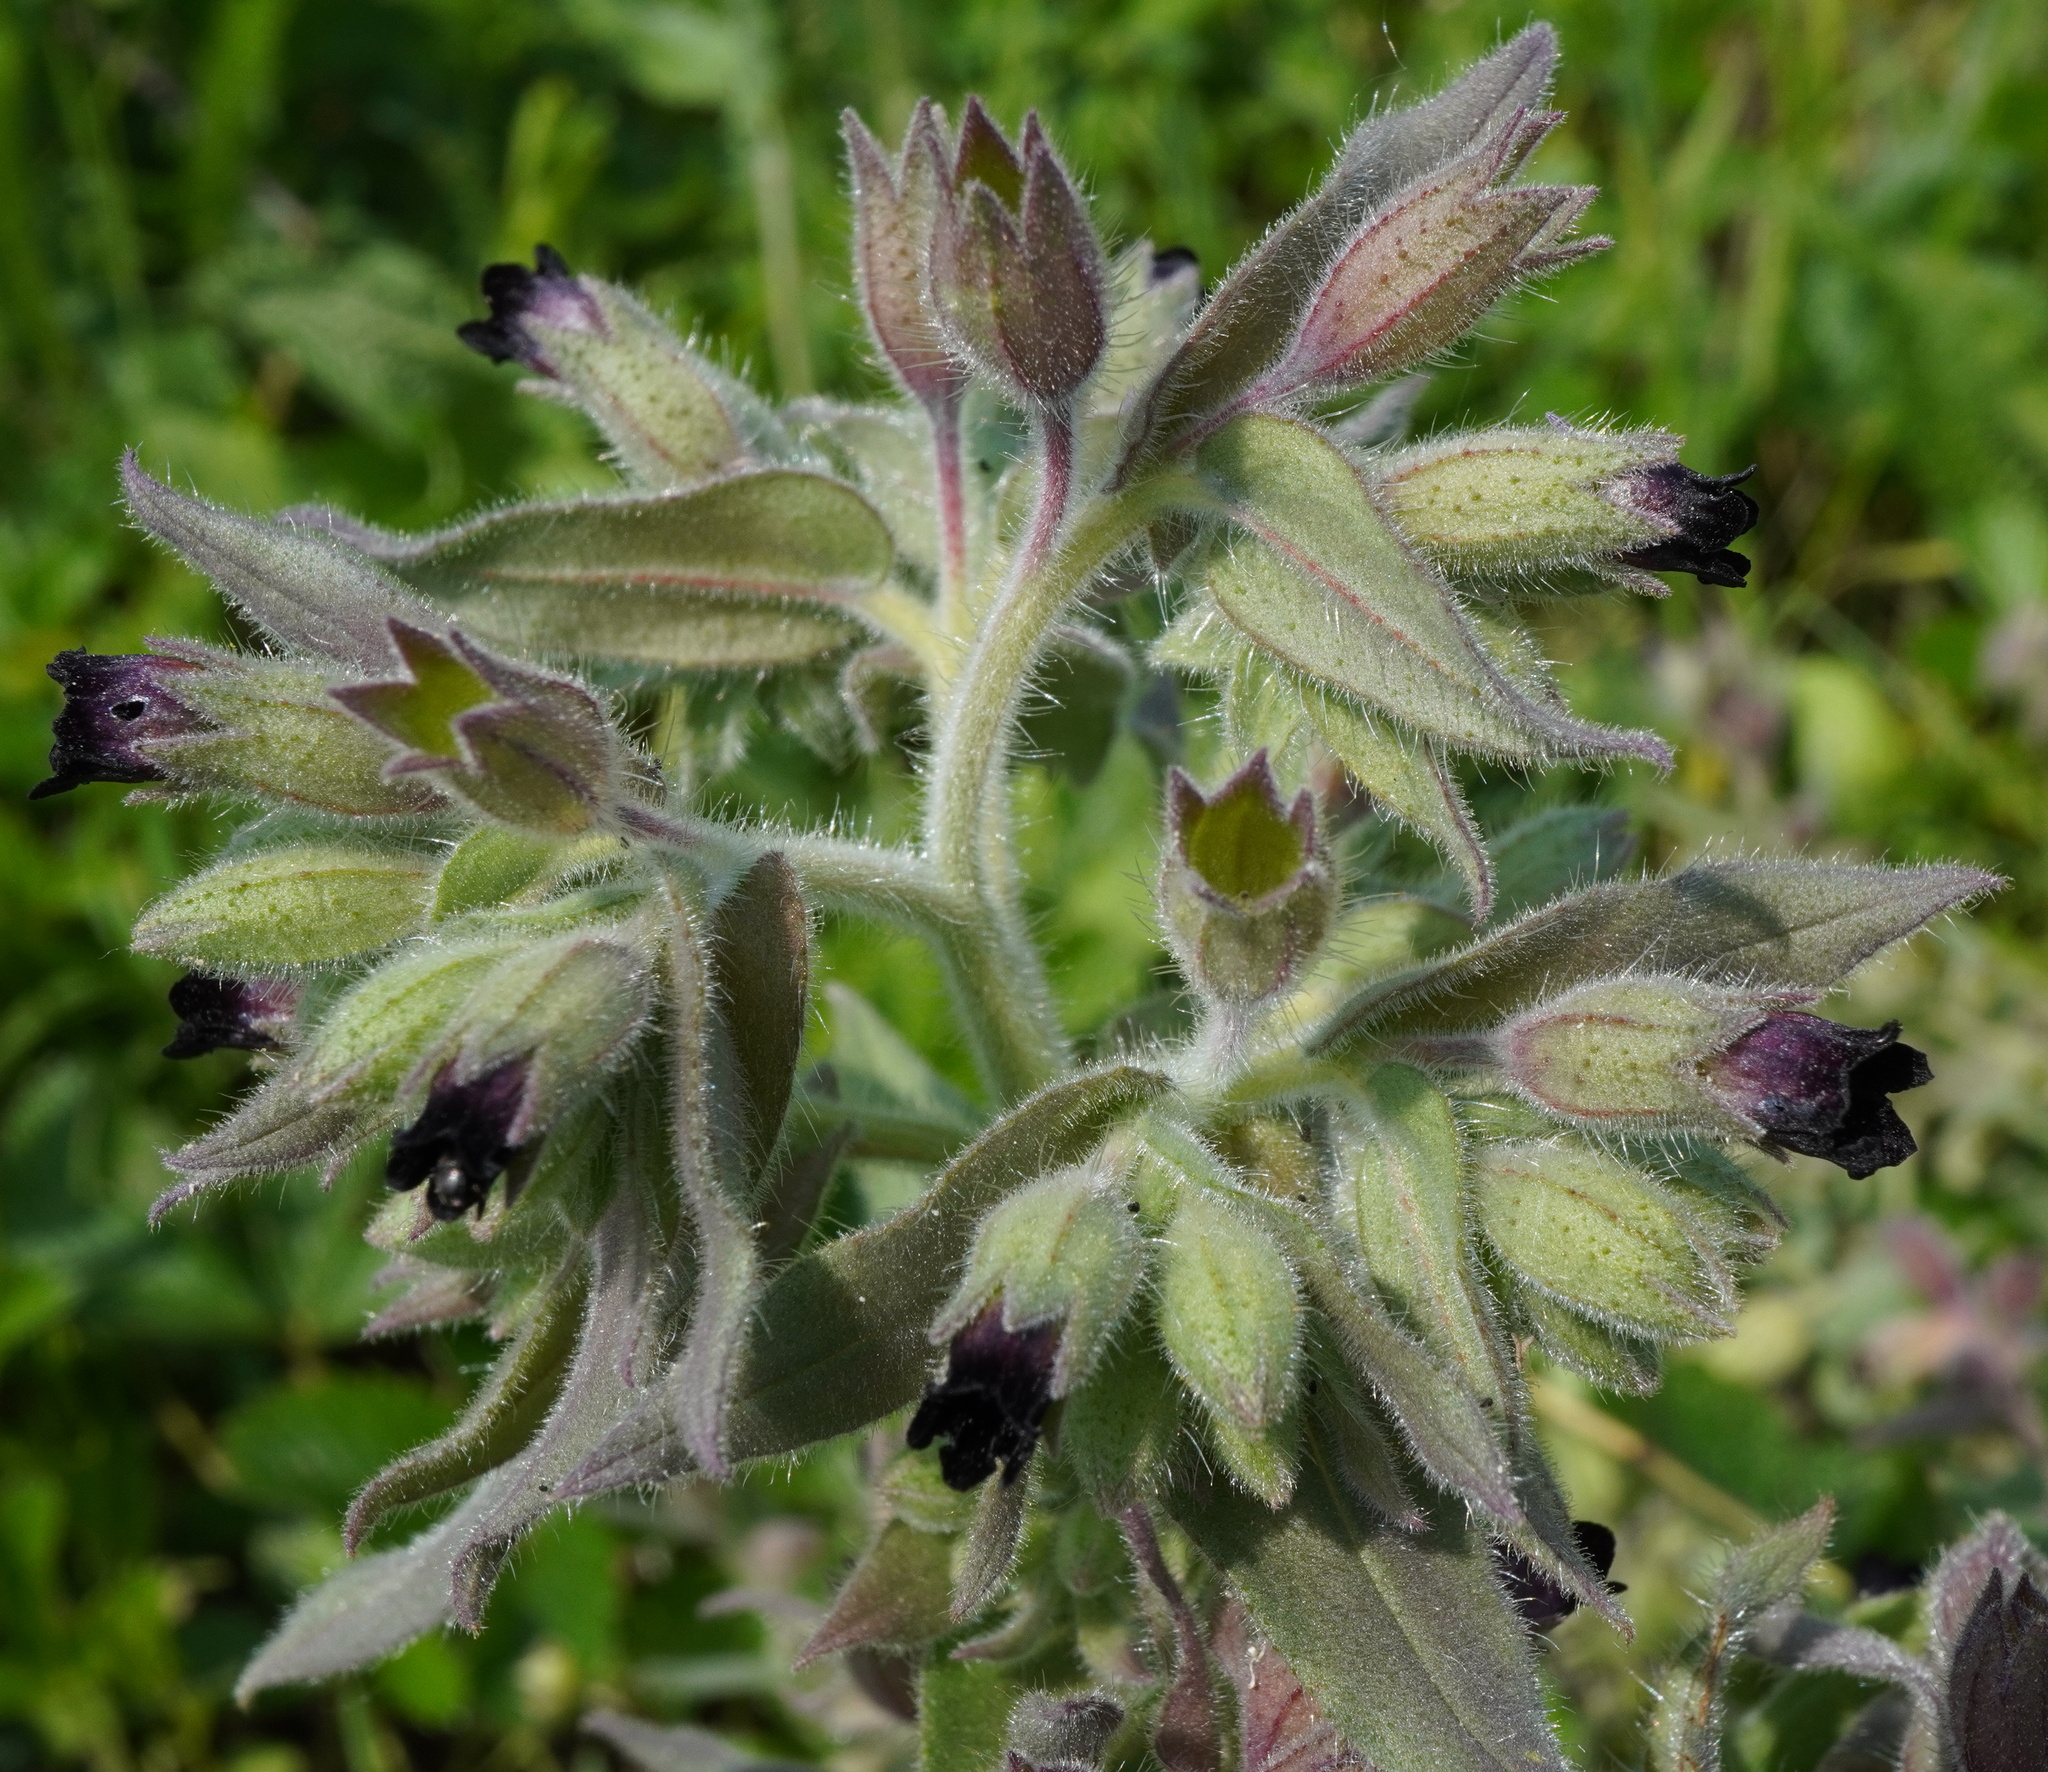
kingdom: Plantae
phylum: Tracheophyta
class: Magnoliopsida
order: Boraginales
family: Boraginaceae
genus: Nonea
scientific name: Nonea pulla
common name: Brown nonea
